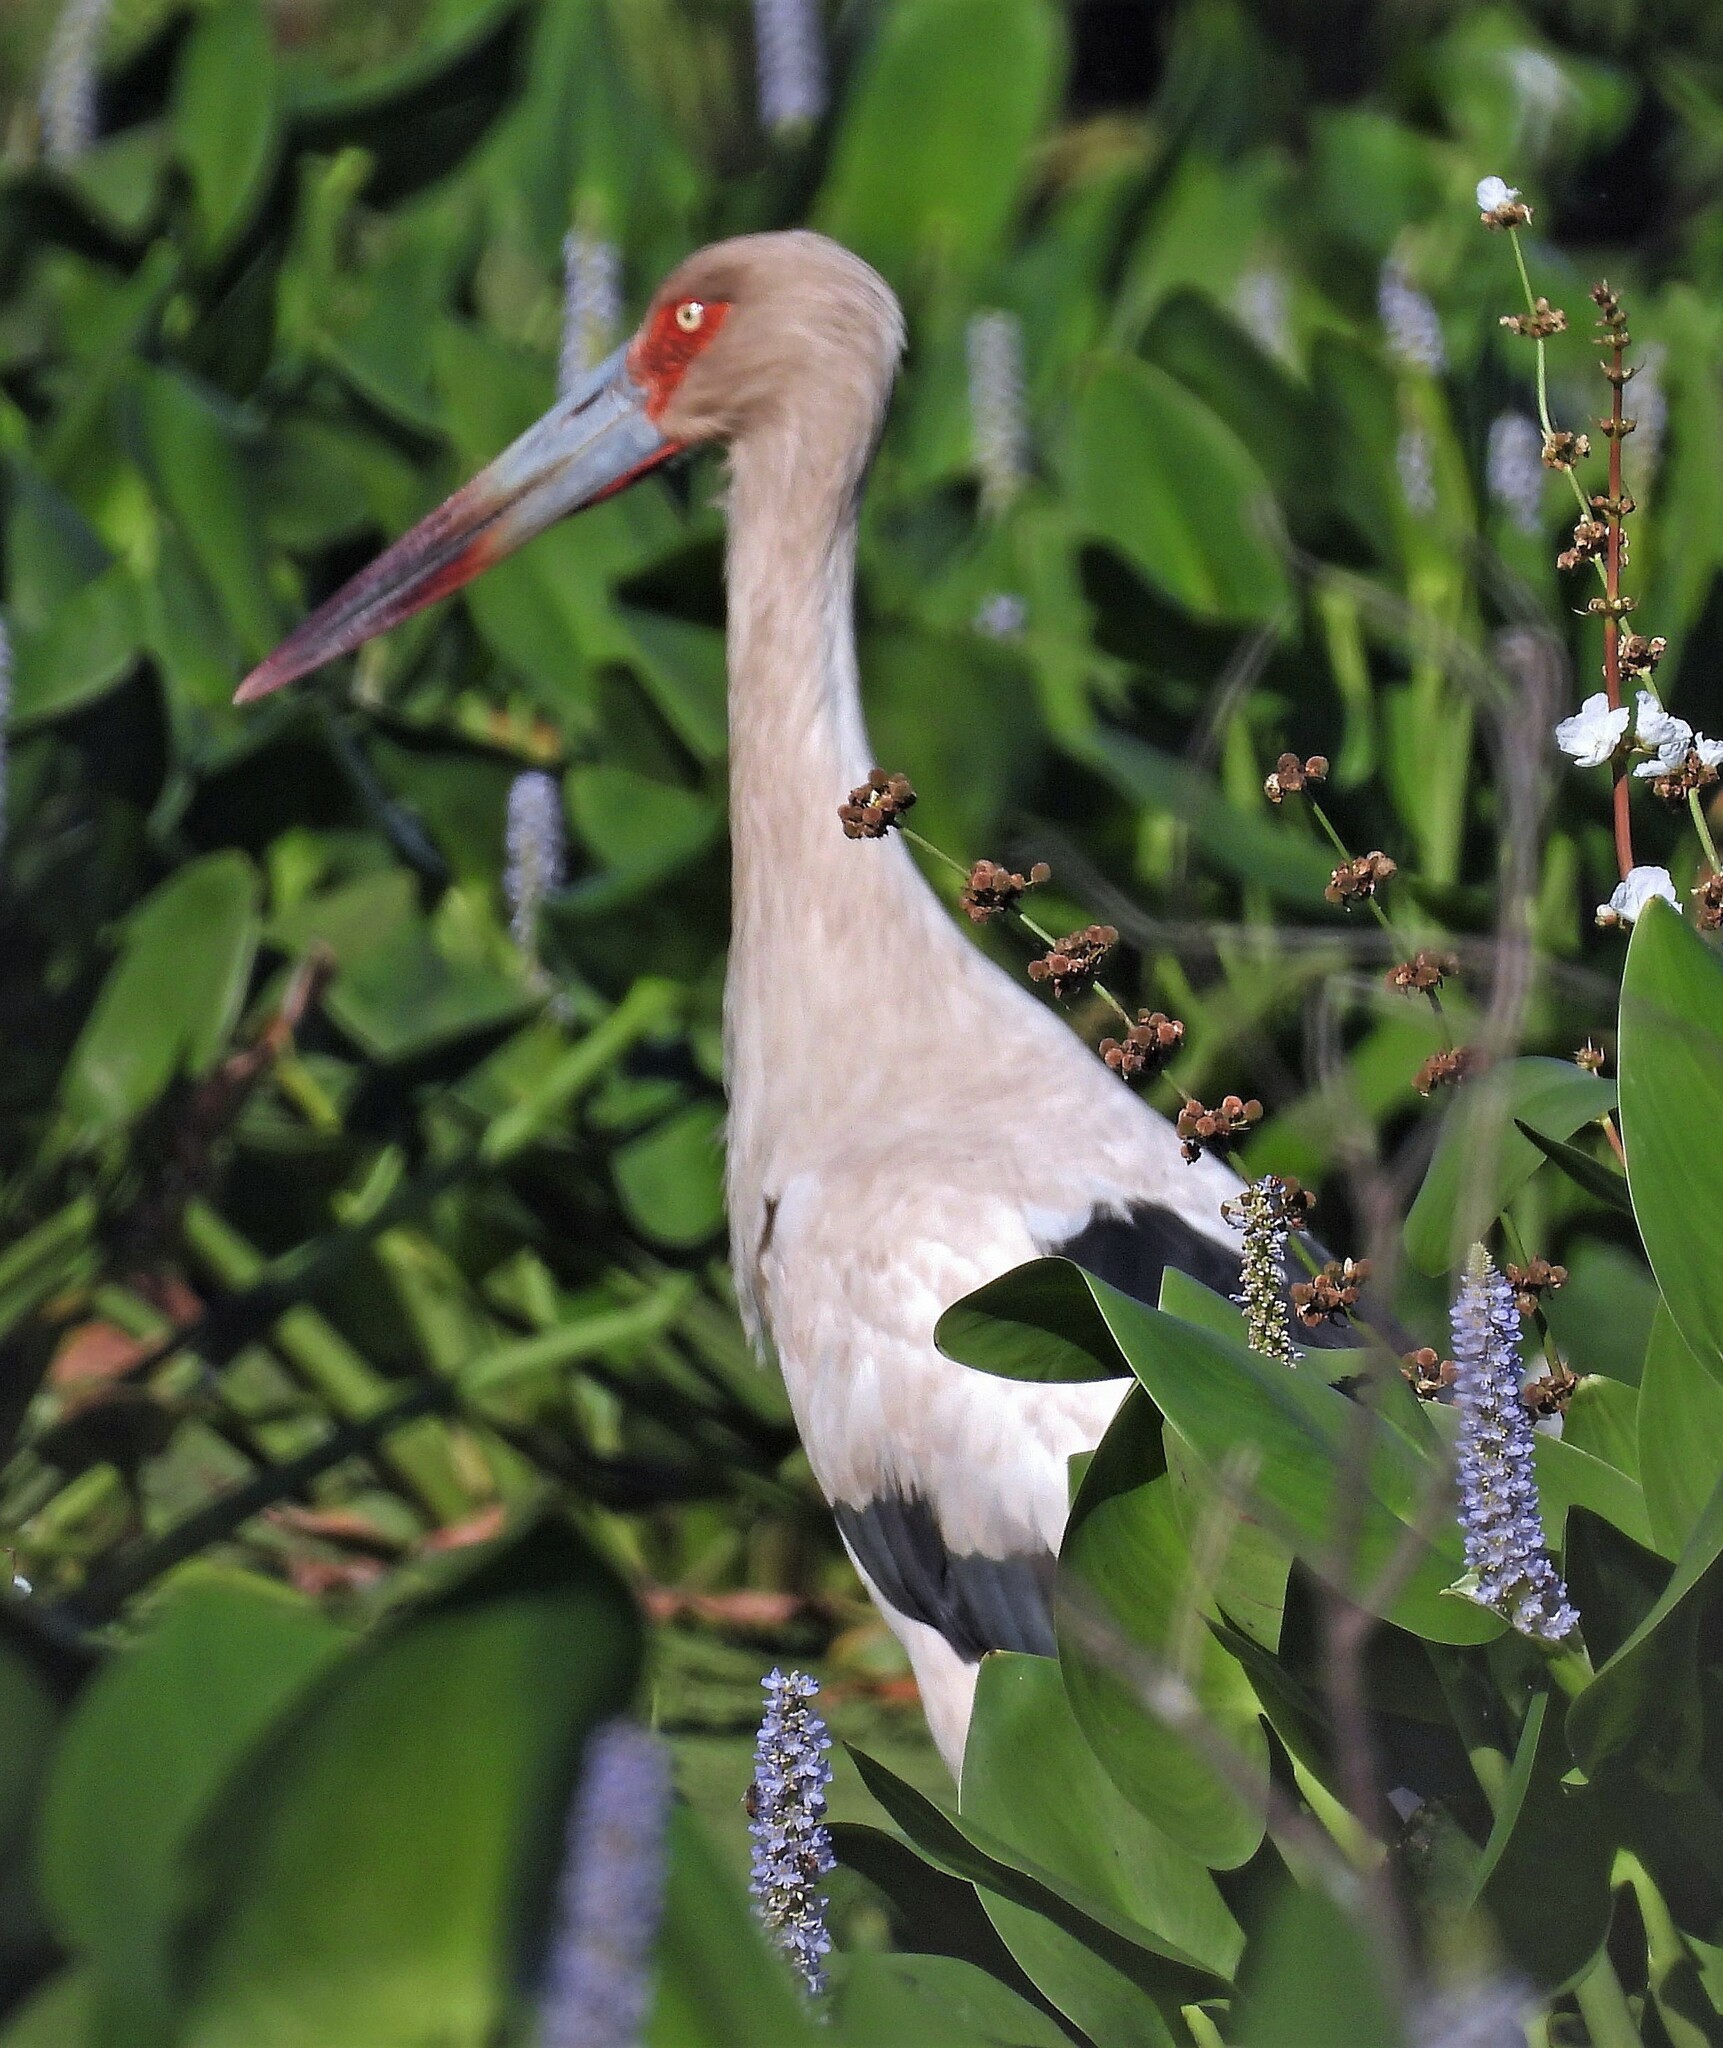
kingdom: Animalia
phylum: Chordata
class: Aves
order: Ciconiiformes
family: Ciconiidae
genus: Ciconia
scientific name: Ciconia maguari
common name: Maguari stork
